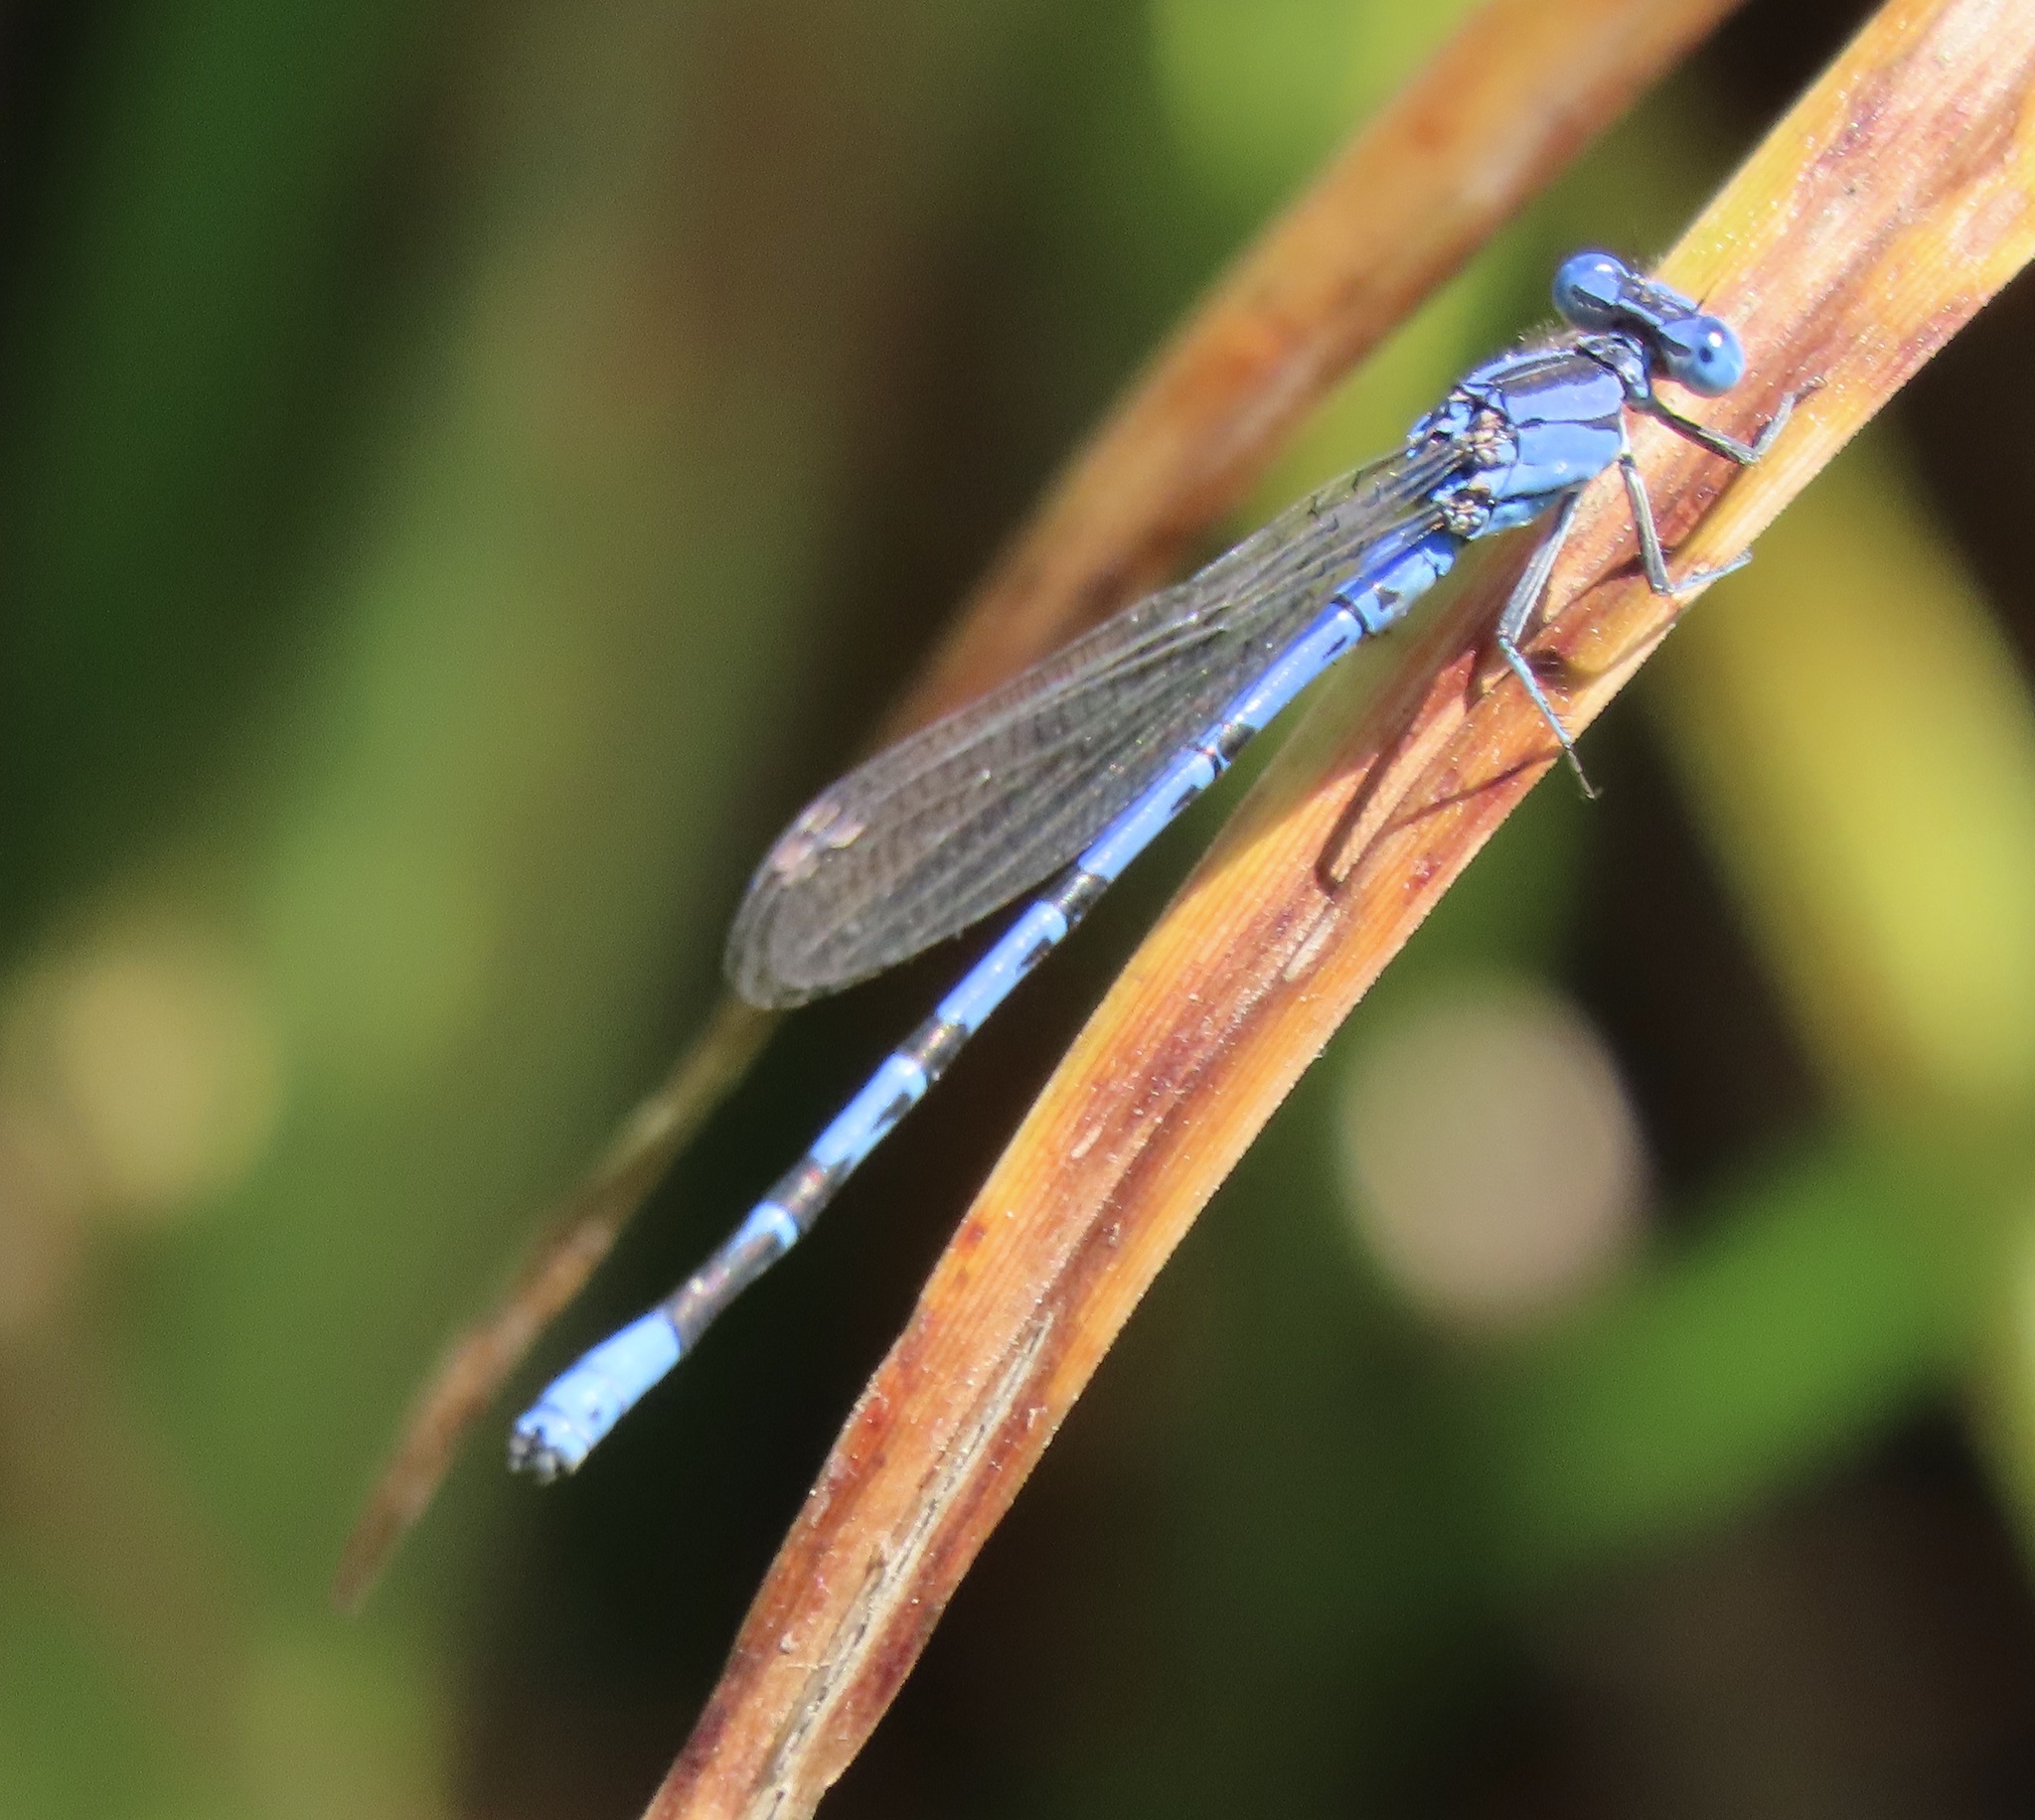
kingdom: Animalia
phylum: Arthropoda
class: Insecta
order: Odonata
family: Coenagrionidae
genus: Argia
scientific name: Argia vivida
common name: Vivid dancer
